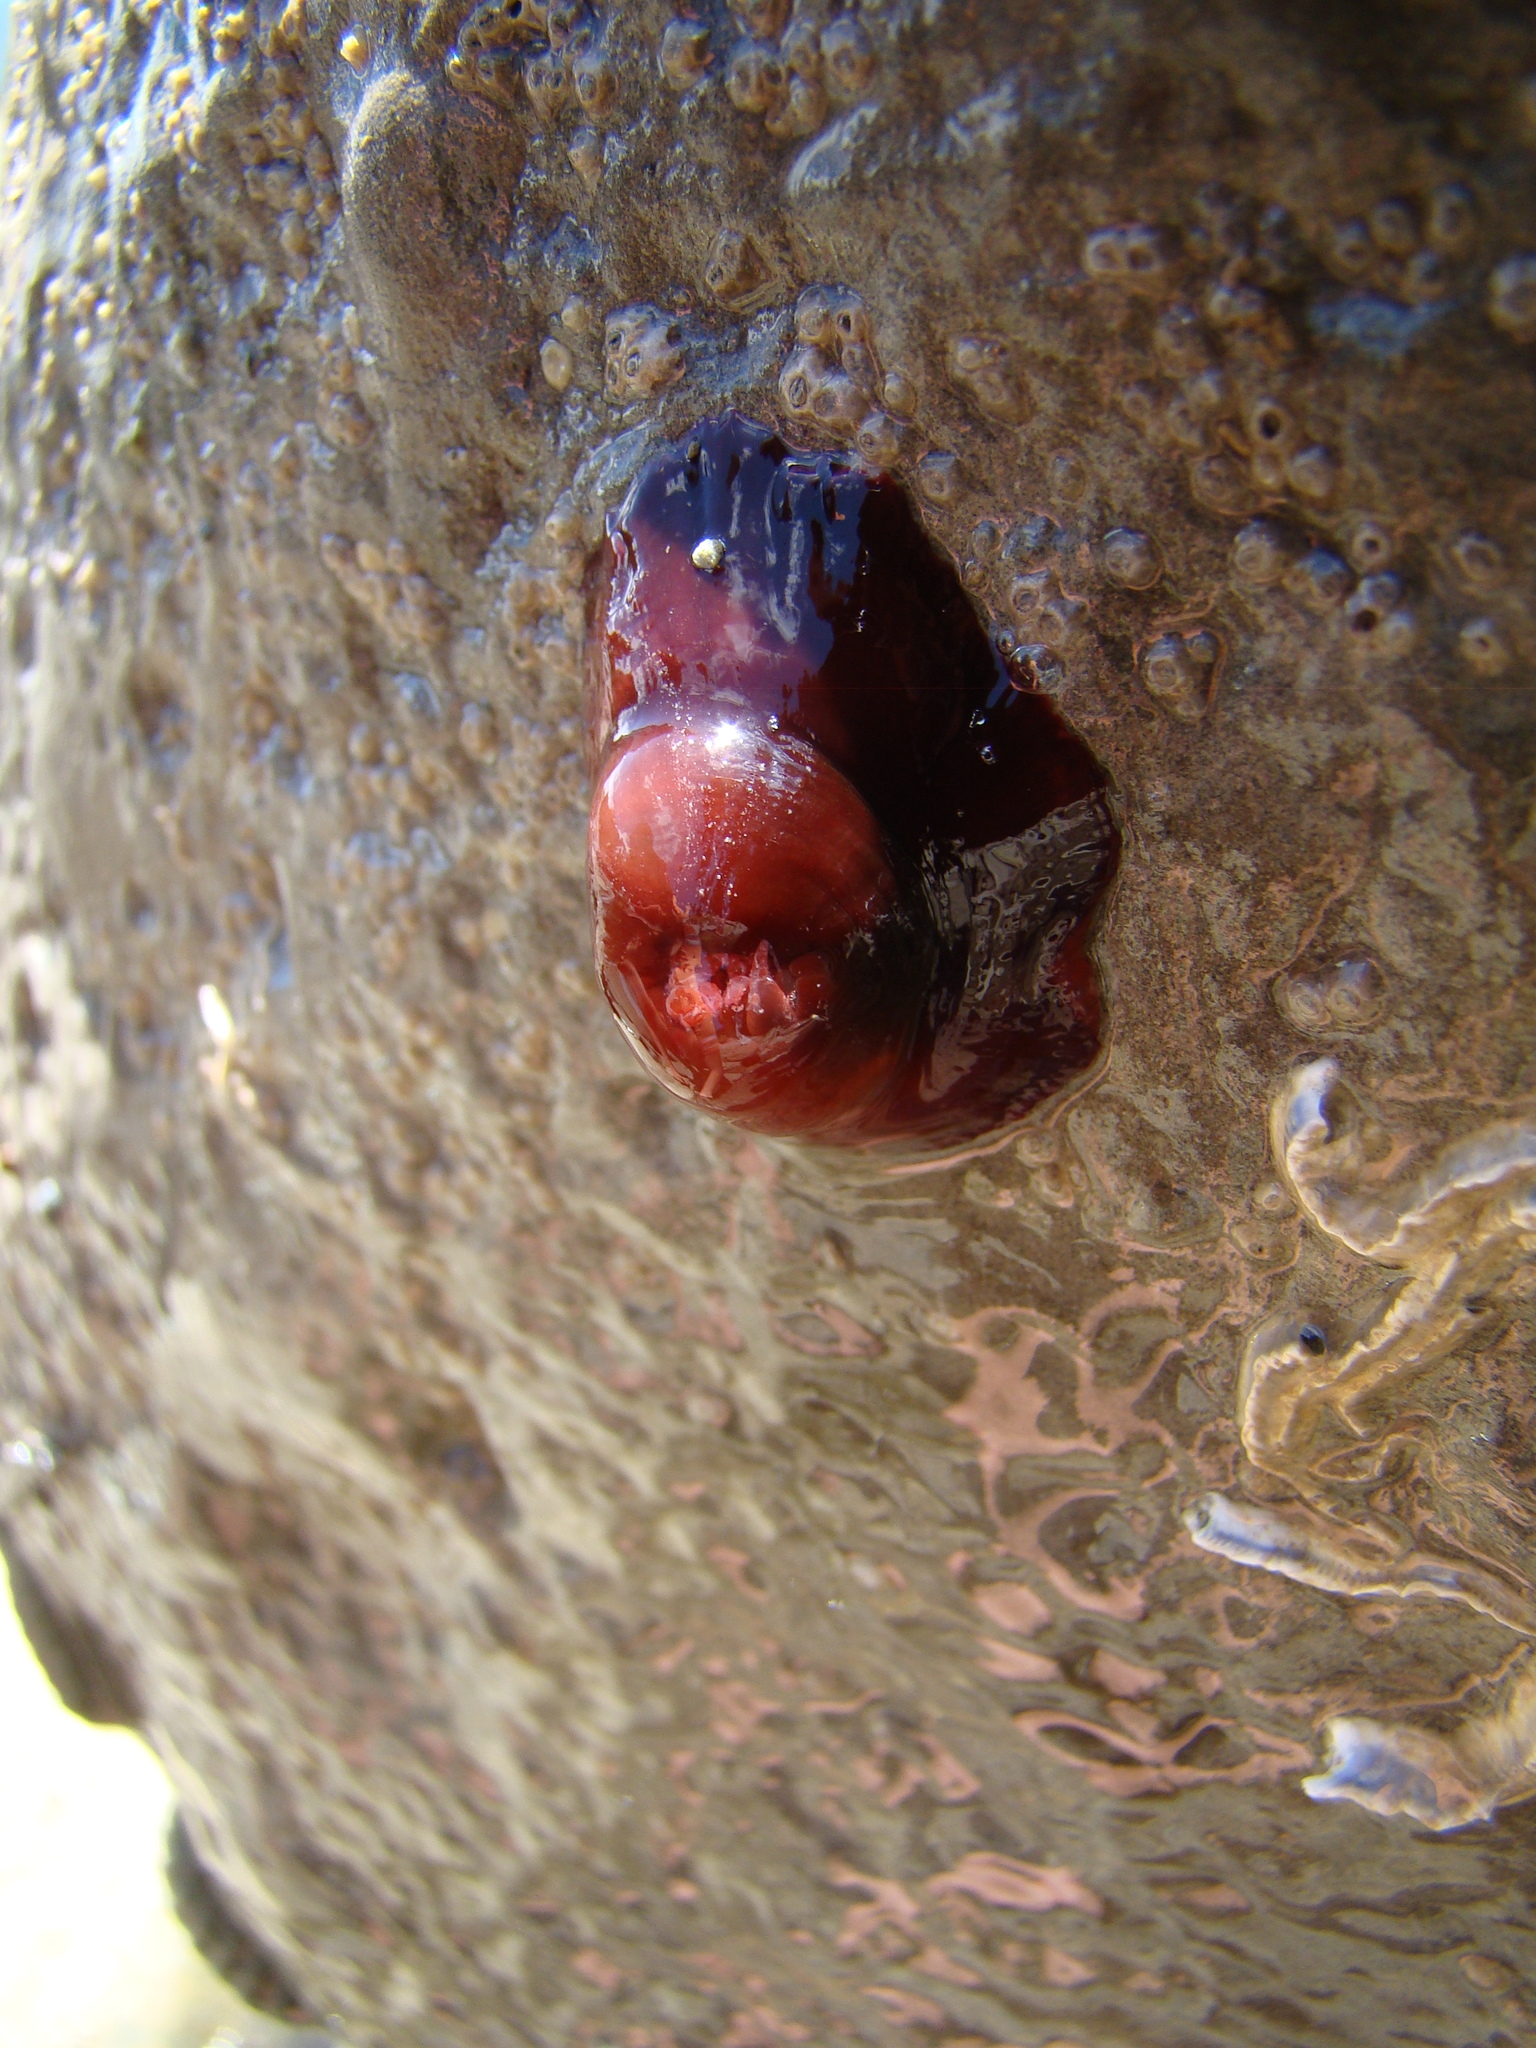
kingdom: Animalia
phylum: Cnidaria
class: Anthozoa
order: Actiniaria
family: Actiniidae
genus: Actinia
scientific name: Actinia tenebrosa
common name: Waratah anemone
